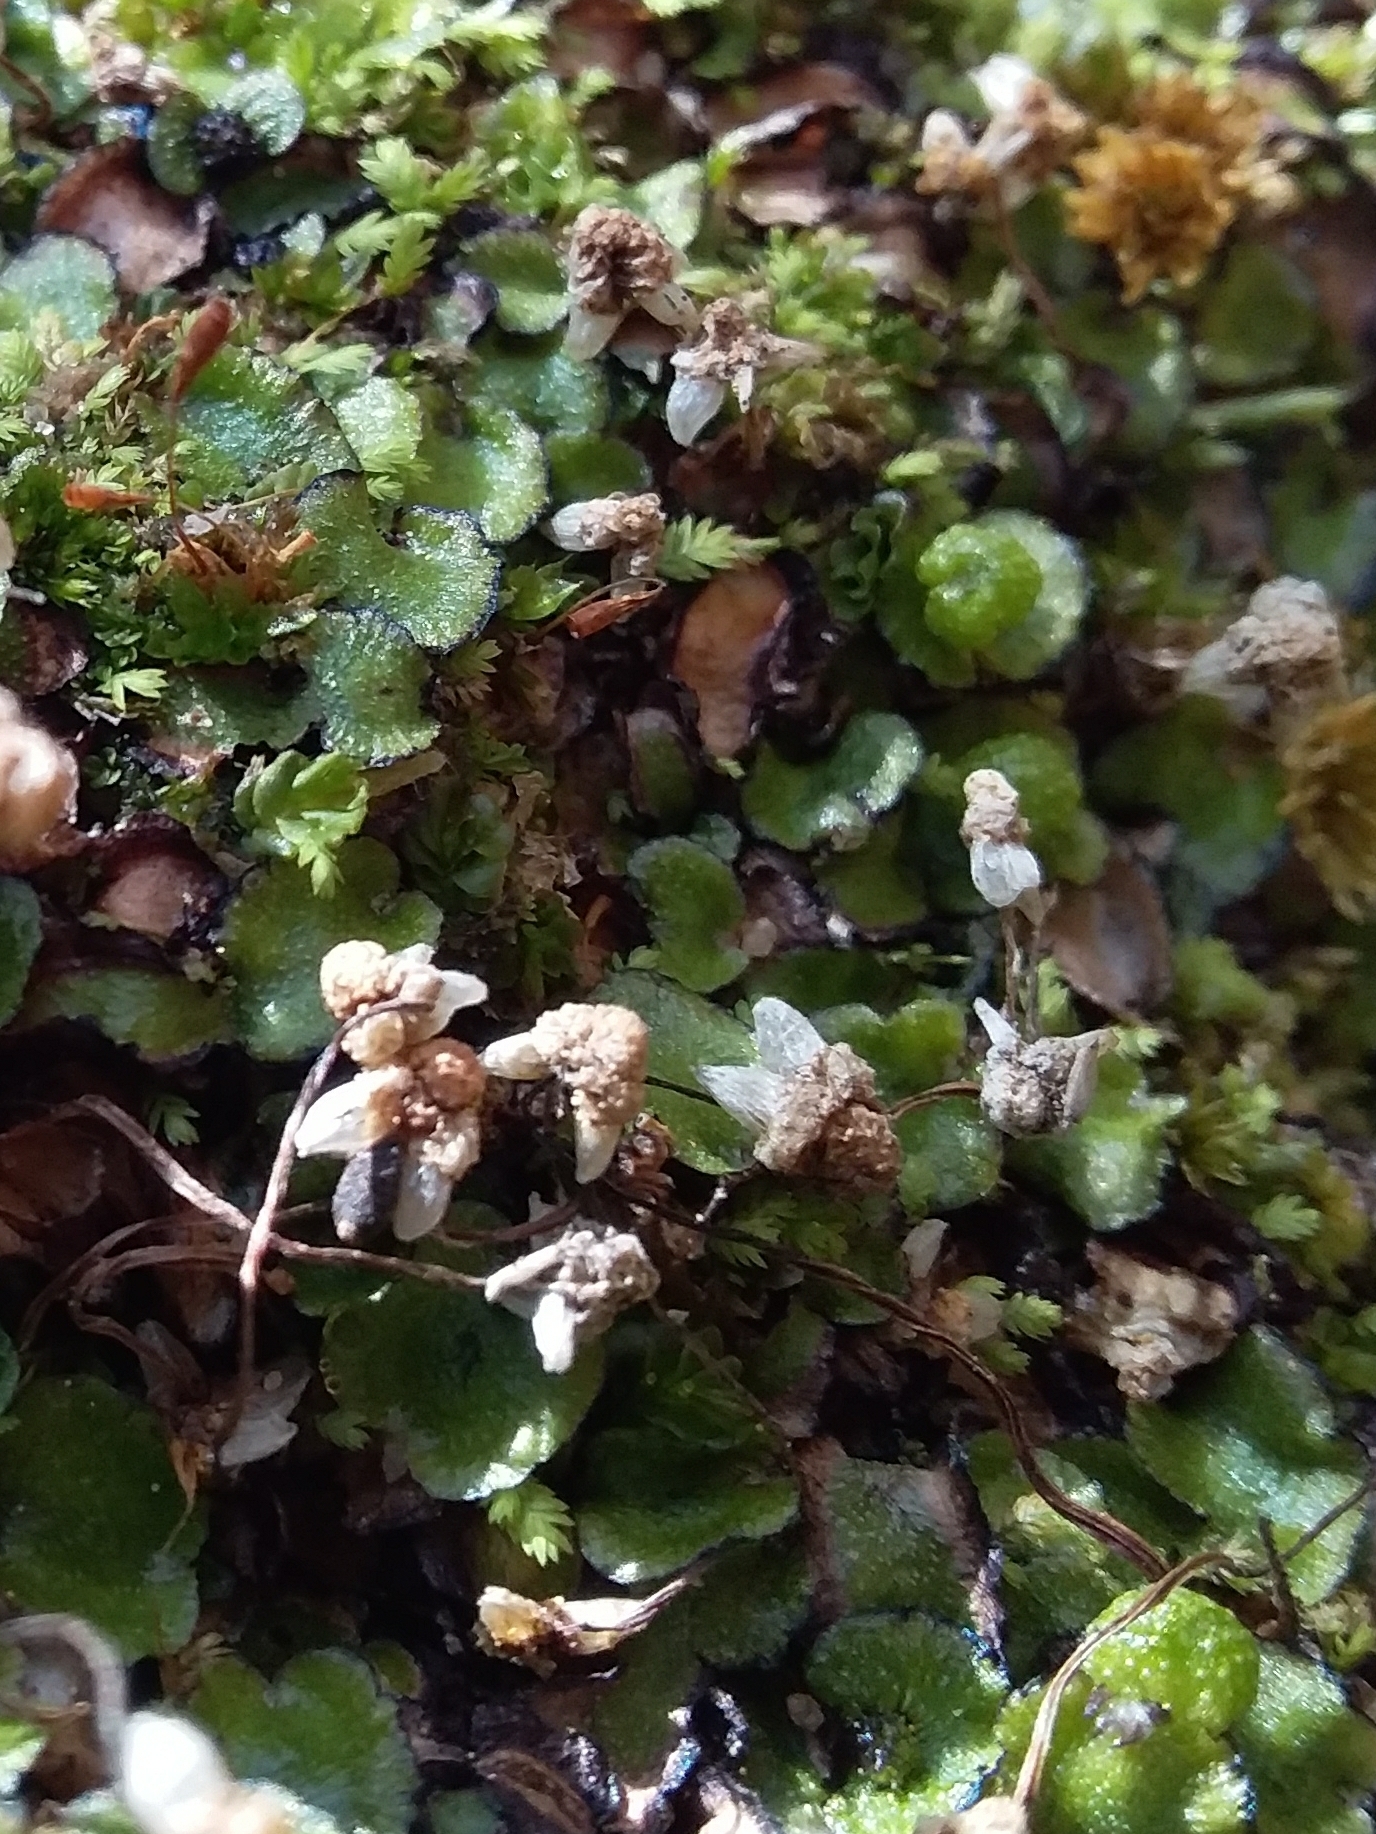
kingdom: Plantae
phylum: Marchantiophyta
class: Marchantiopsida
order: Marchantiales
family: Aytoniaceae
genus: Asterella
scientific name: Asterella drummondii
